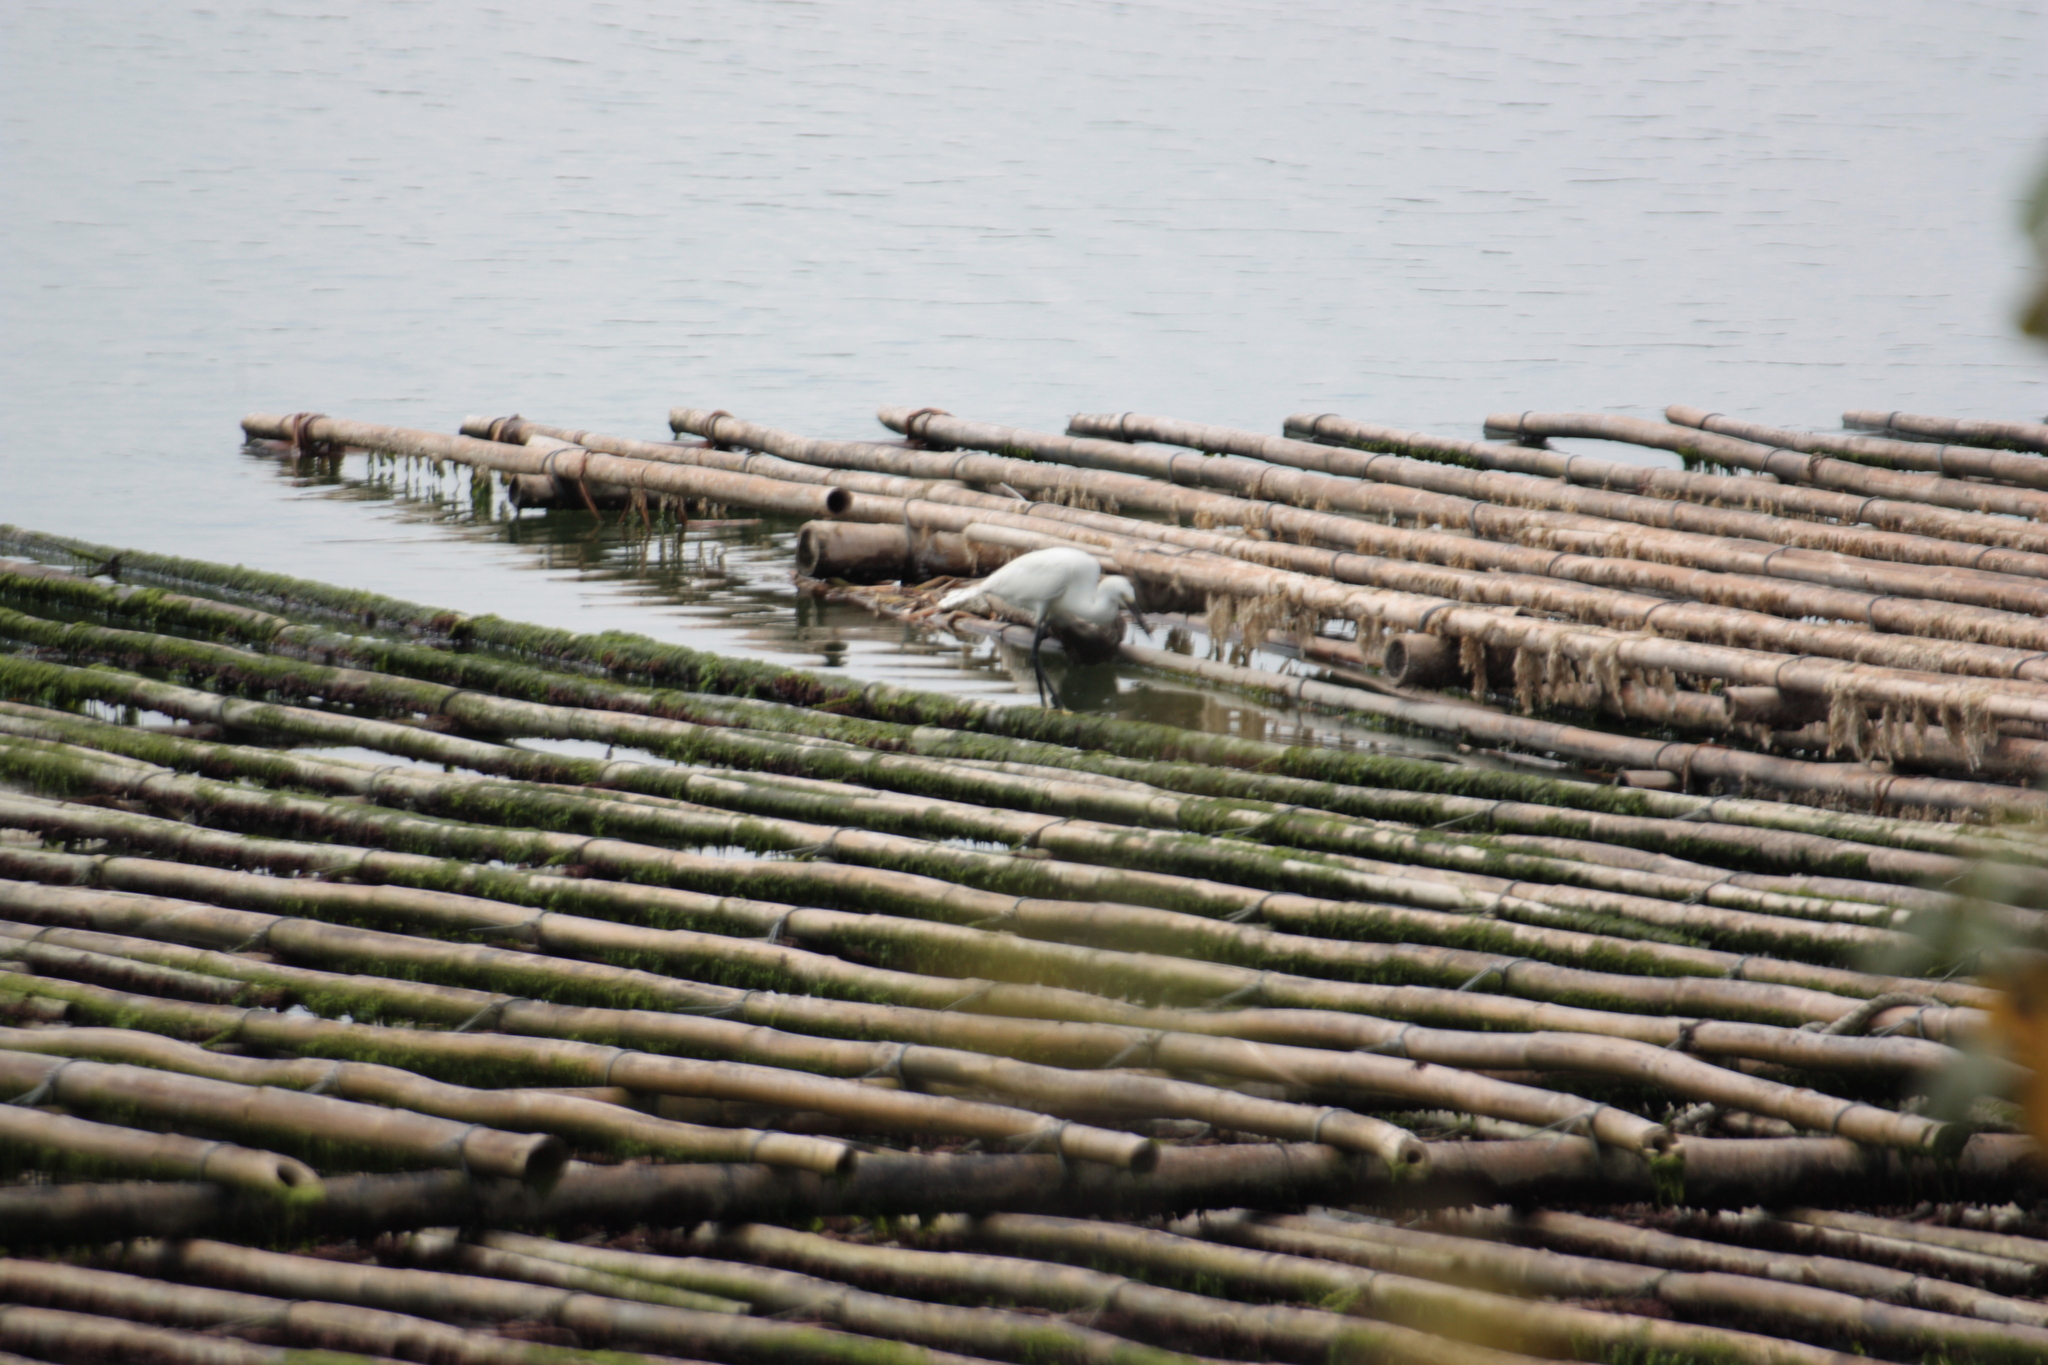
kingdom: Animalia
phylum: Chordata
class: Aves
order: Pelecaniformes
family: Ardeidae
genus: Egretta
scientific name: Egretta garzetta
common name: Little egret
